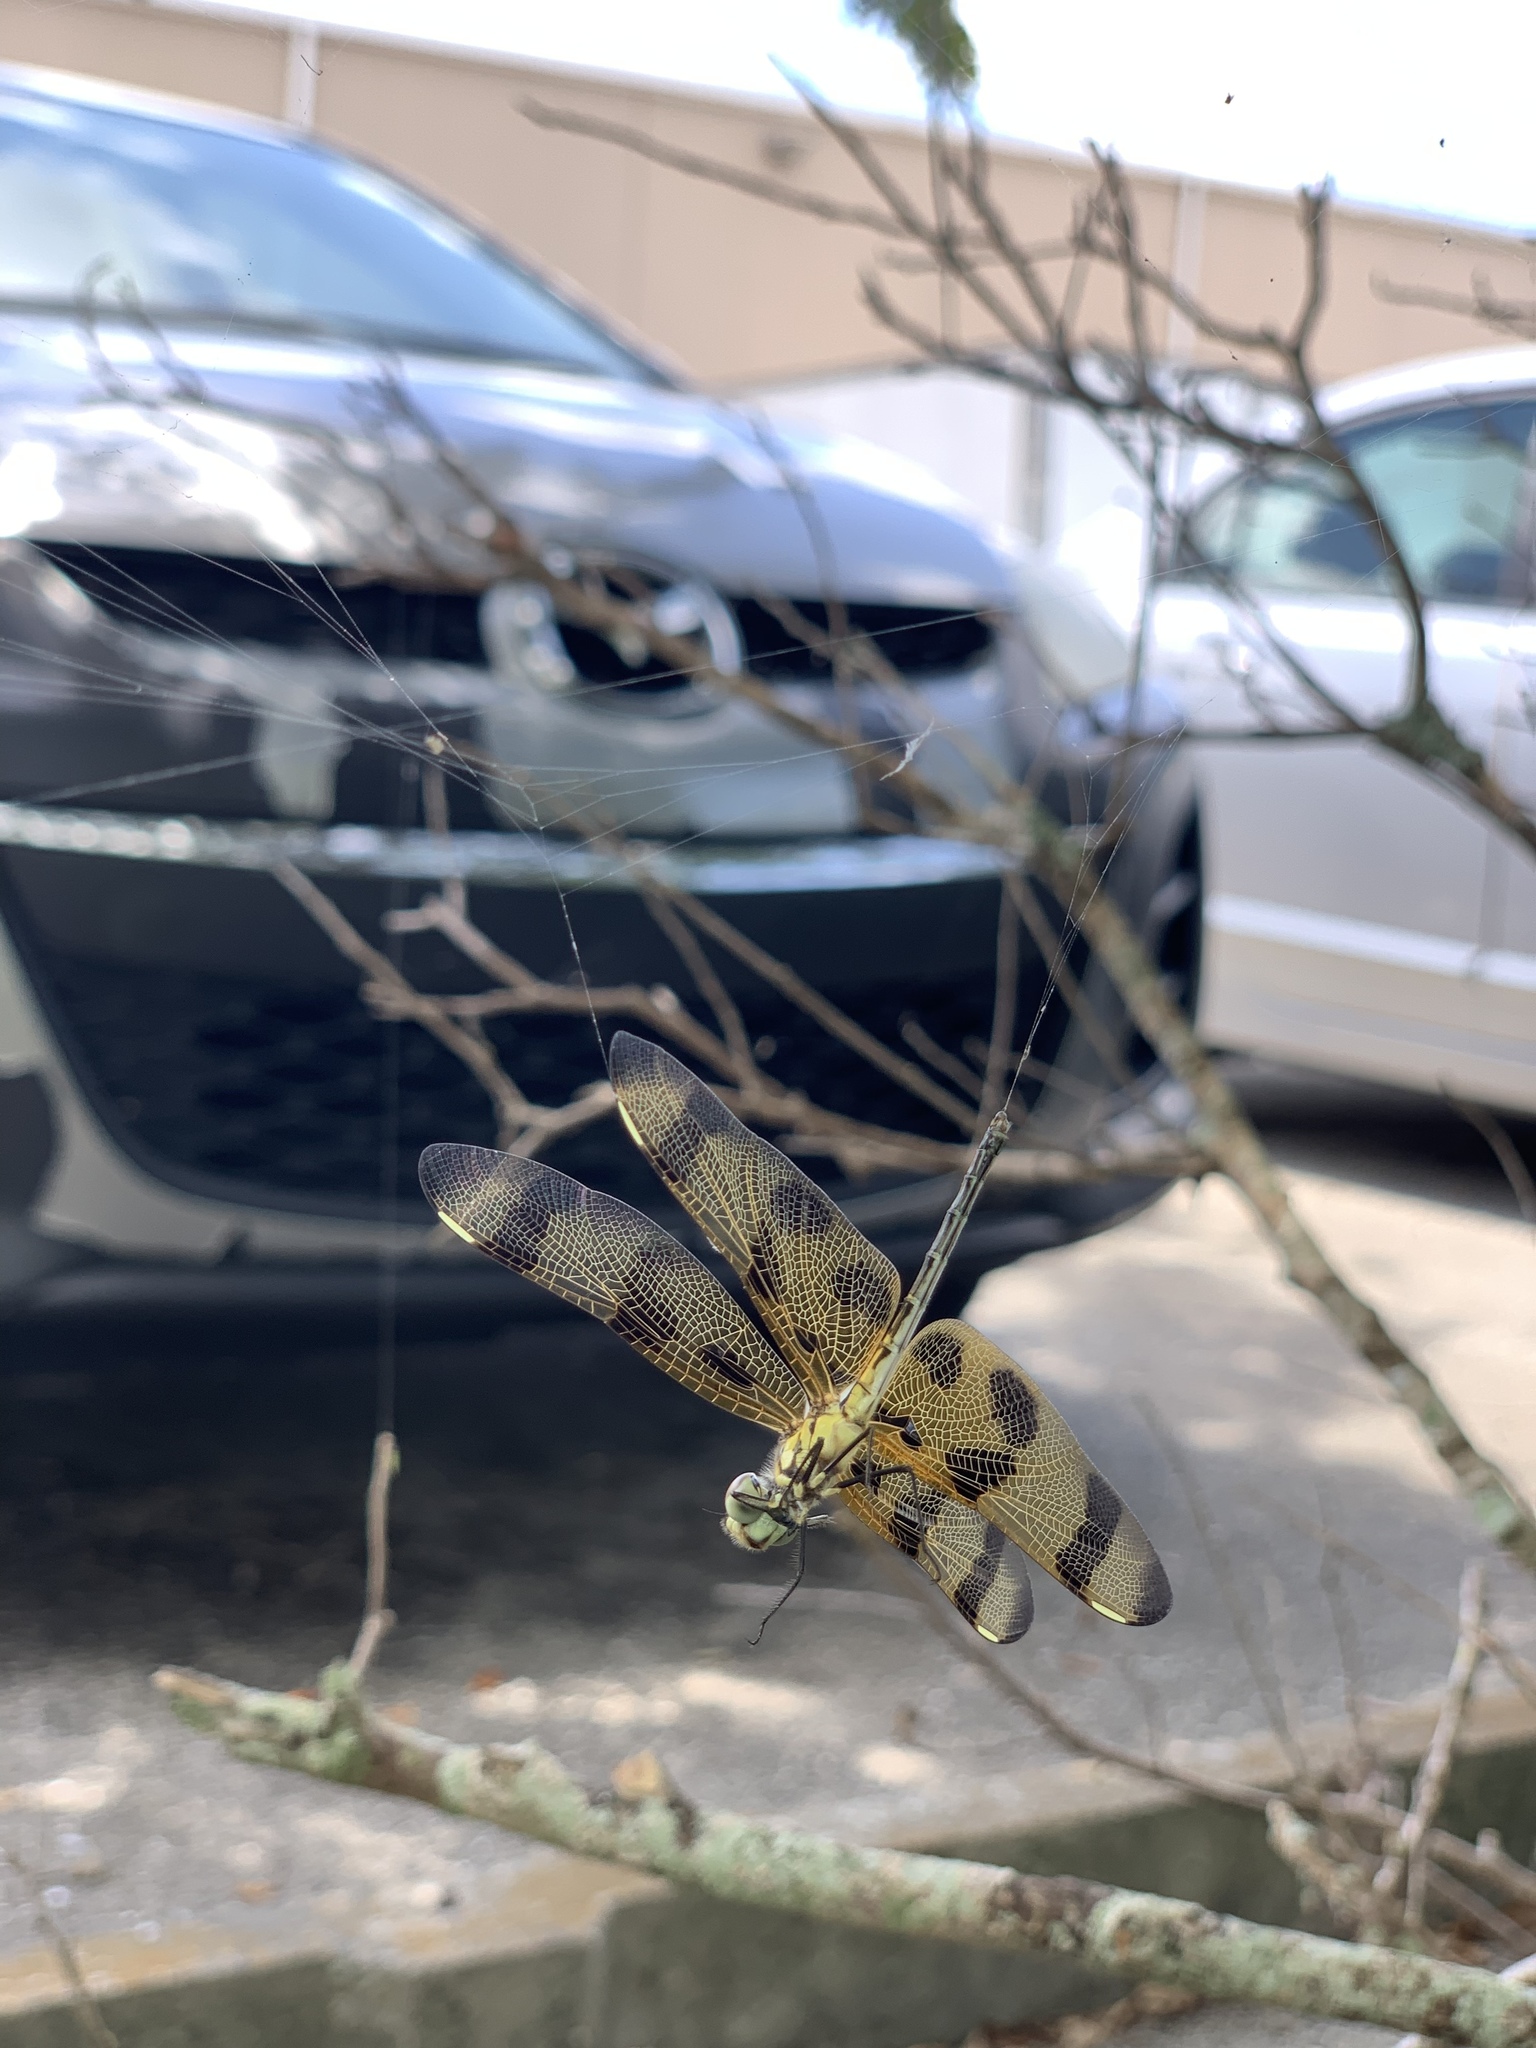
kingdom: Animalia
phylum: Arthropoda
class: Insecta
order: Odonata
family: Libellulidae
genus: Celithemis
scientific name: Celithemis eponina
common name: Halloween pennant
